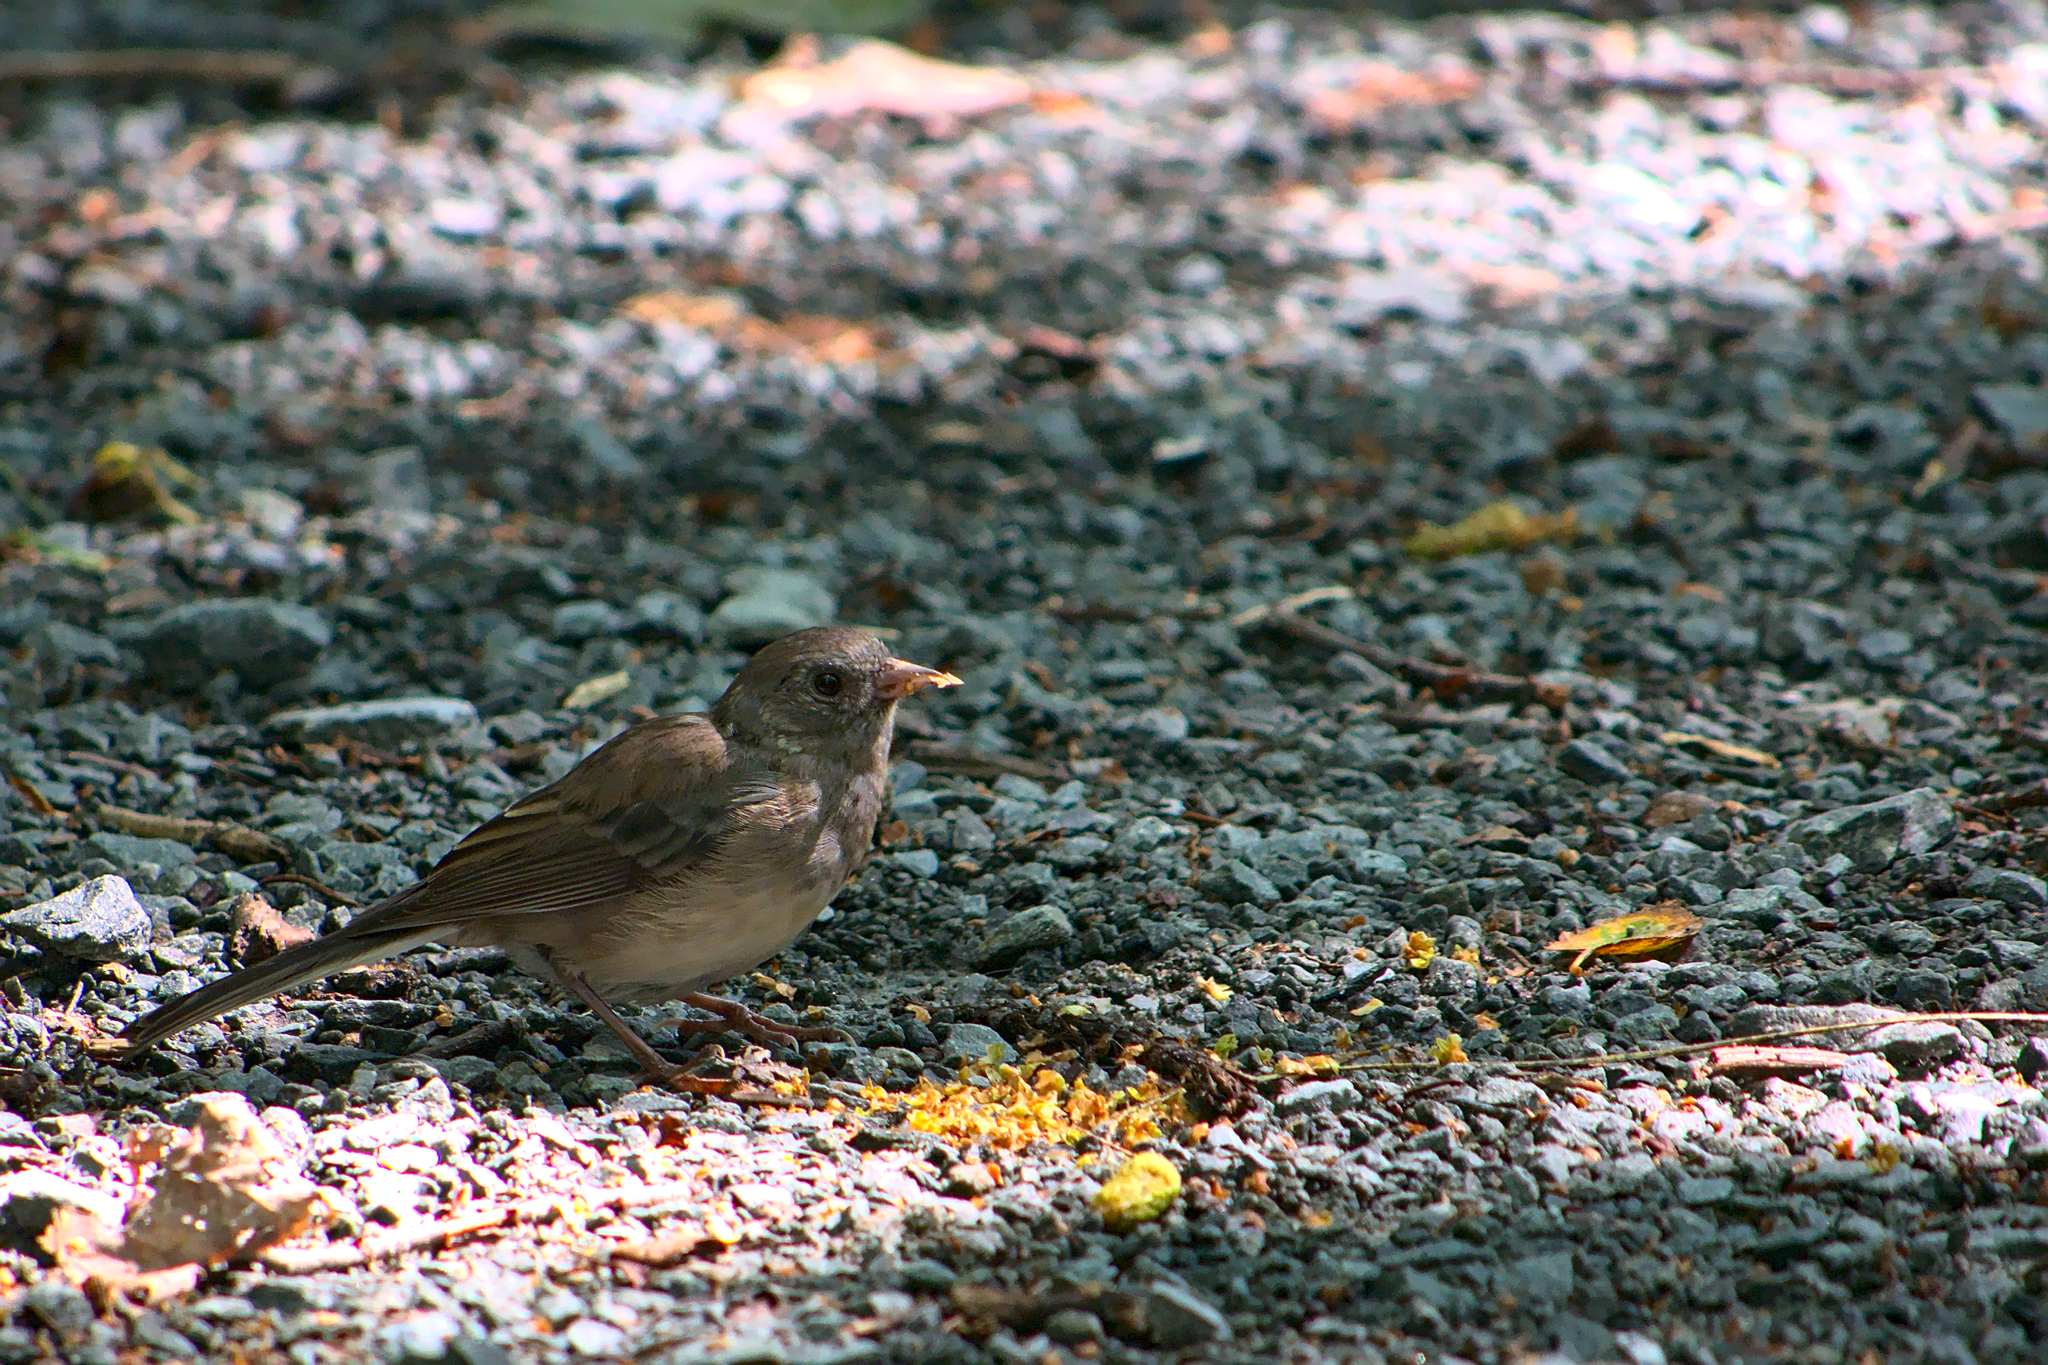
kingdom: Animalia
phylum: Chordata
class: Aves
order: Passeriformes
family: Passerellidae
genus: Junco
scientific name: Junco hyemalis
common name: Dark-eyed junco
